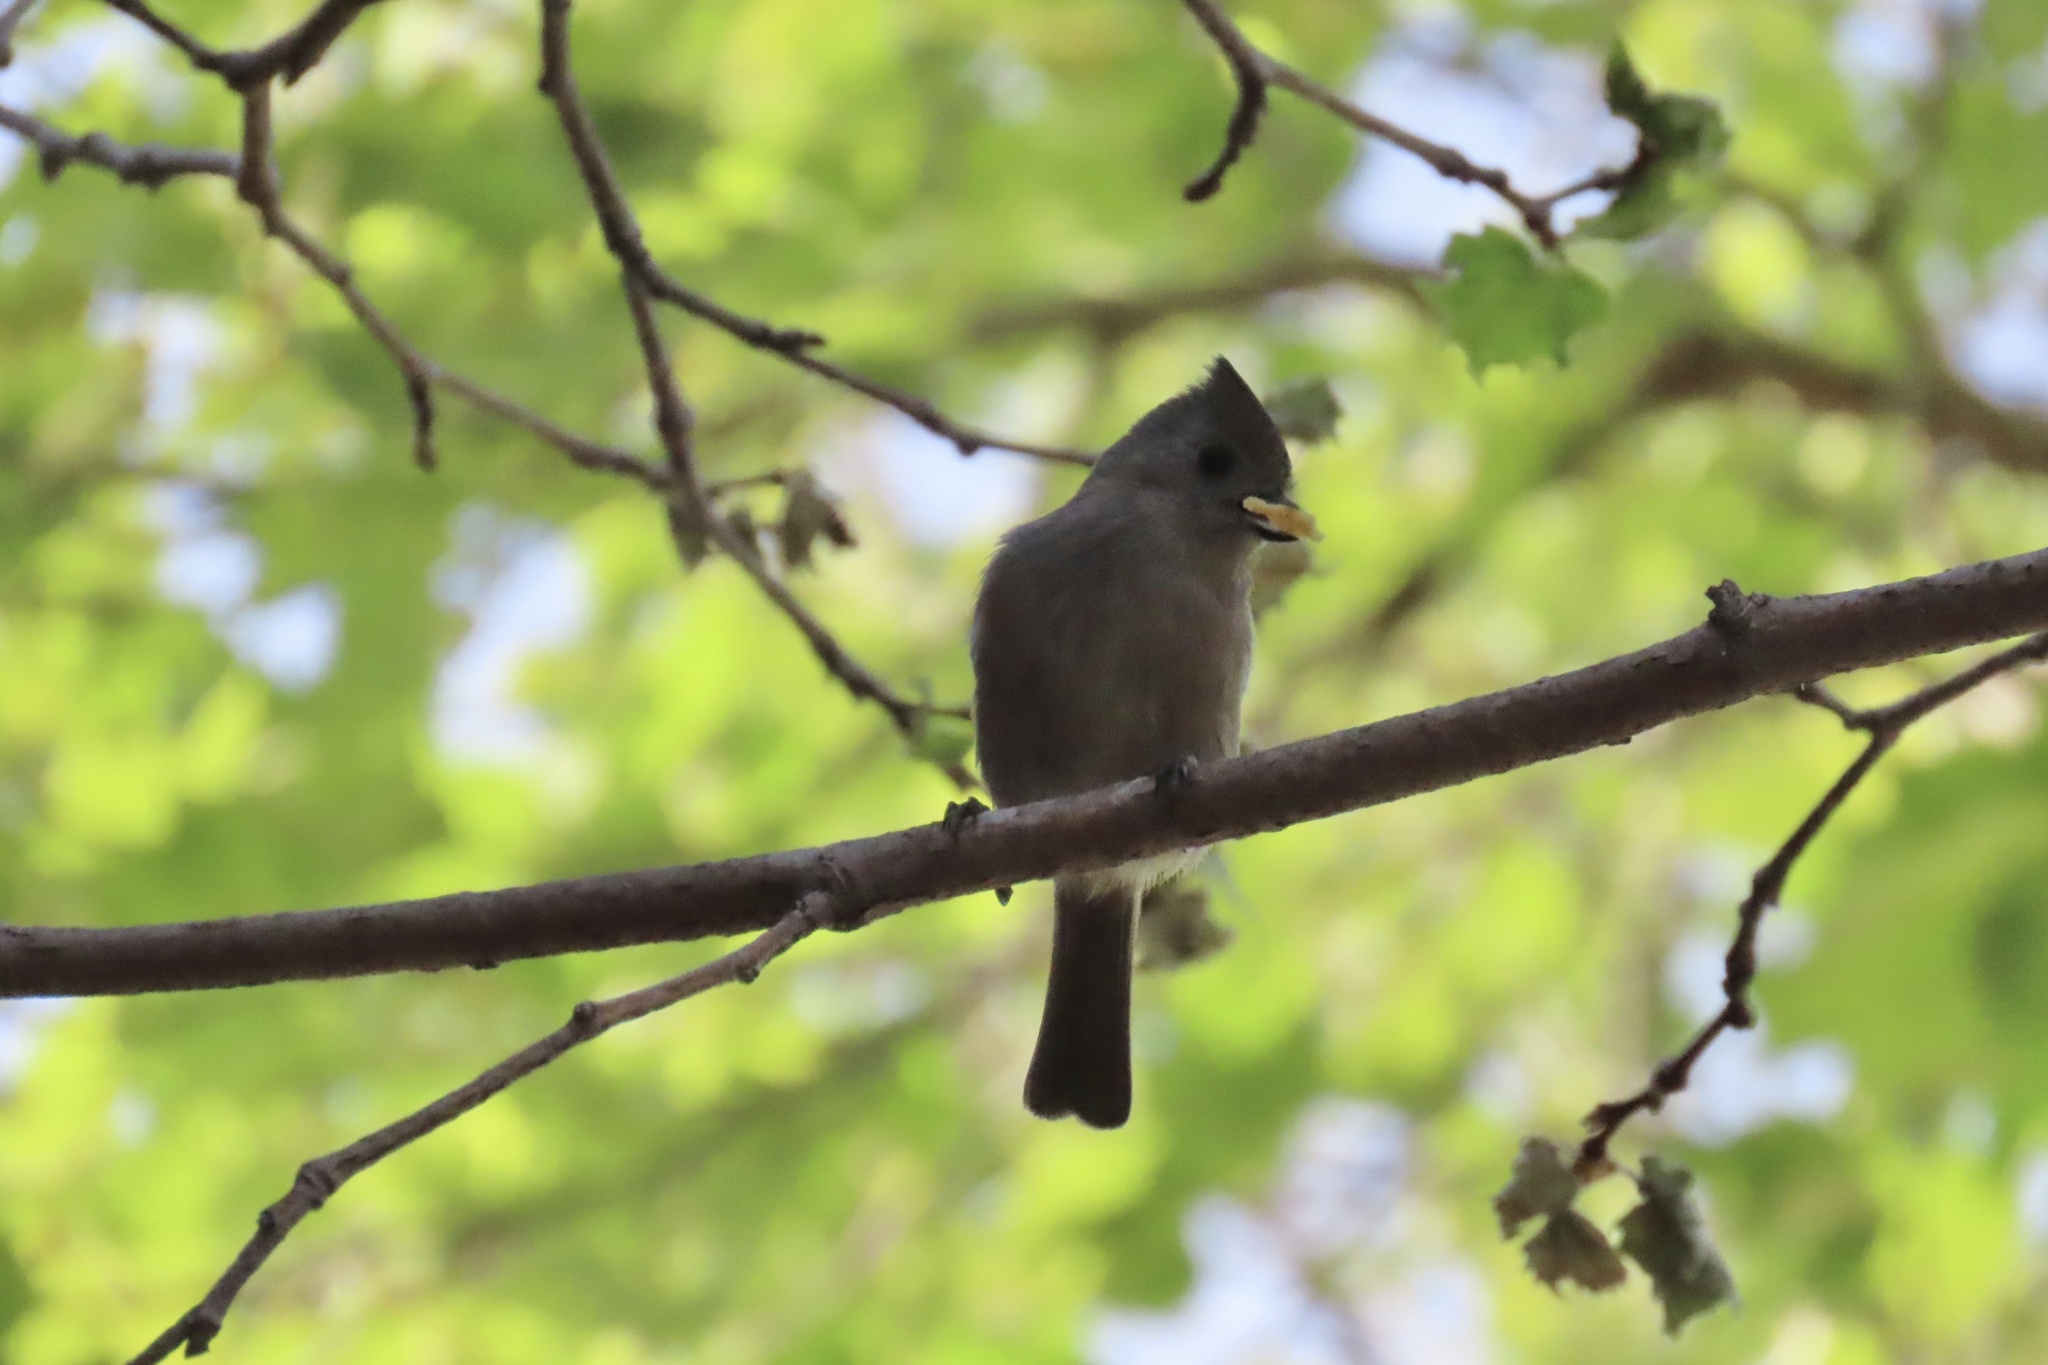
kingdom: Animalia
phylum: Chordata
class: Aves
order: Passeriformes
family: Paridae
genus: Baeolophus
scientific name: Baeolophus inornatus
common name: Oak titmouse
